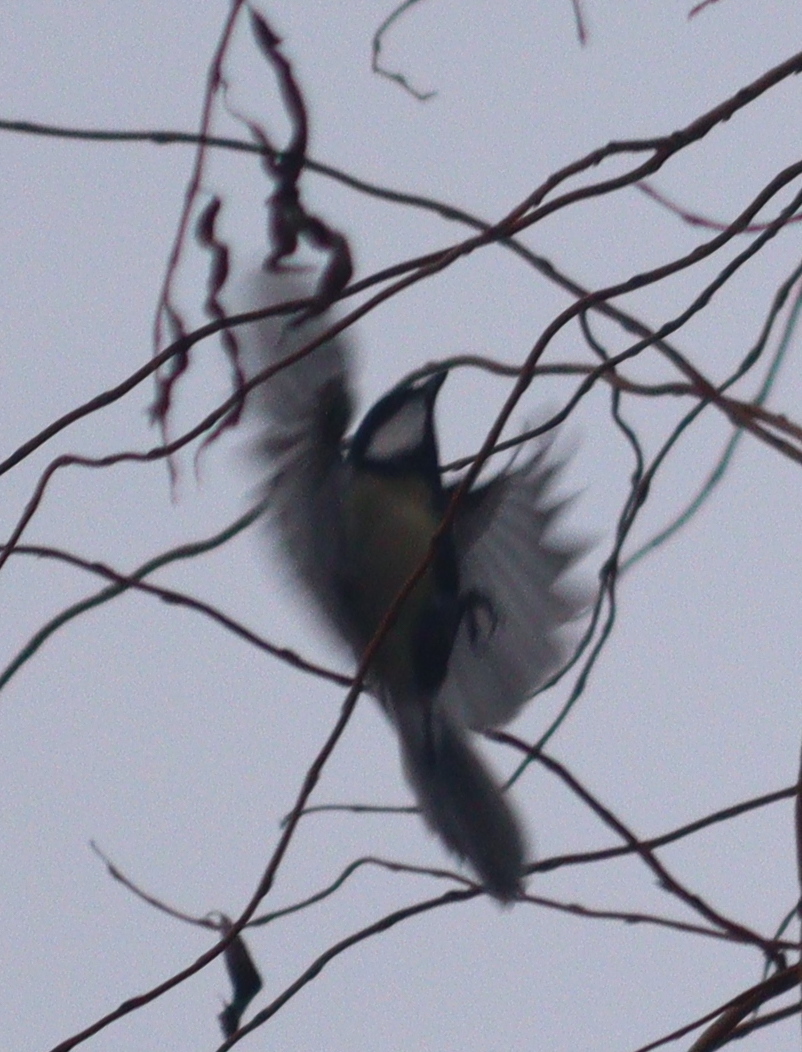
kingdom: Animalia
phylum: Chordata
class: Aves
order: Passeriformes
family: Paridae
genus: Parus
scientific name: Parus major
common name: Great tit
